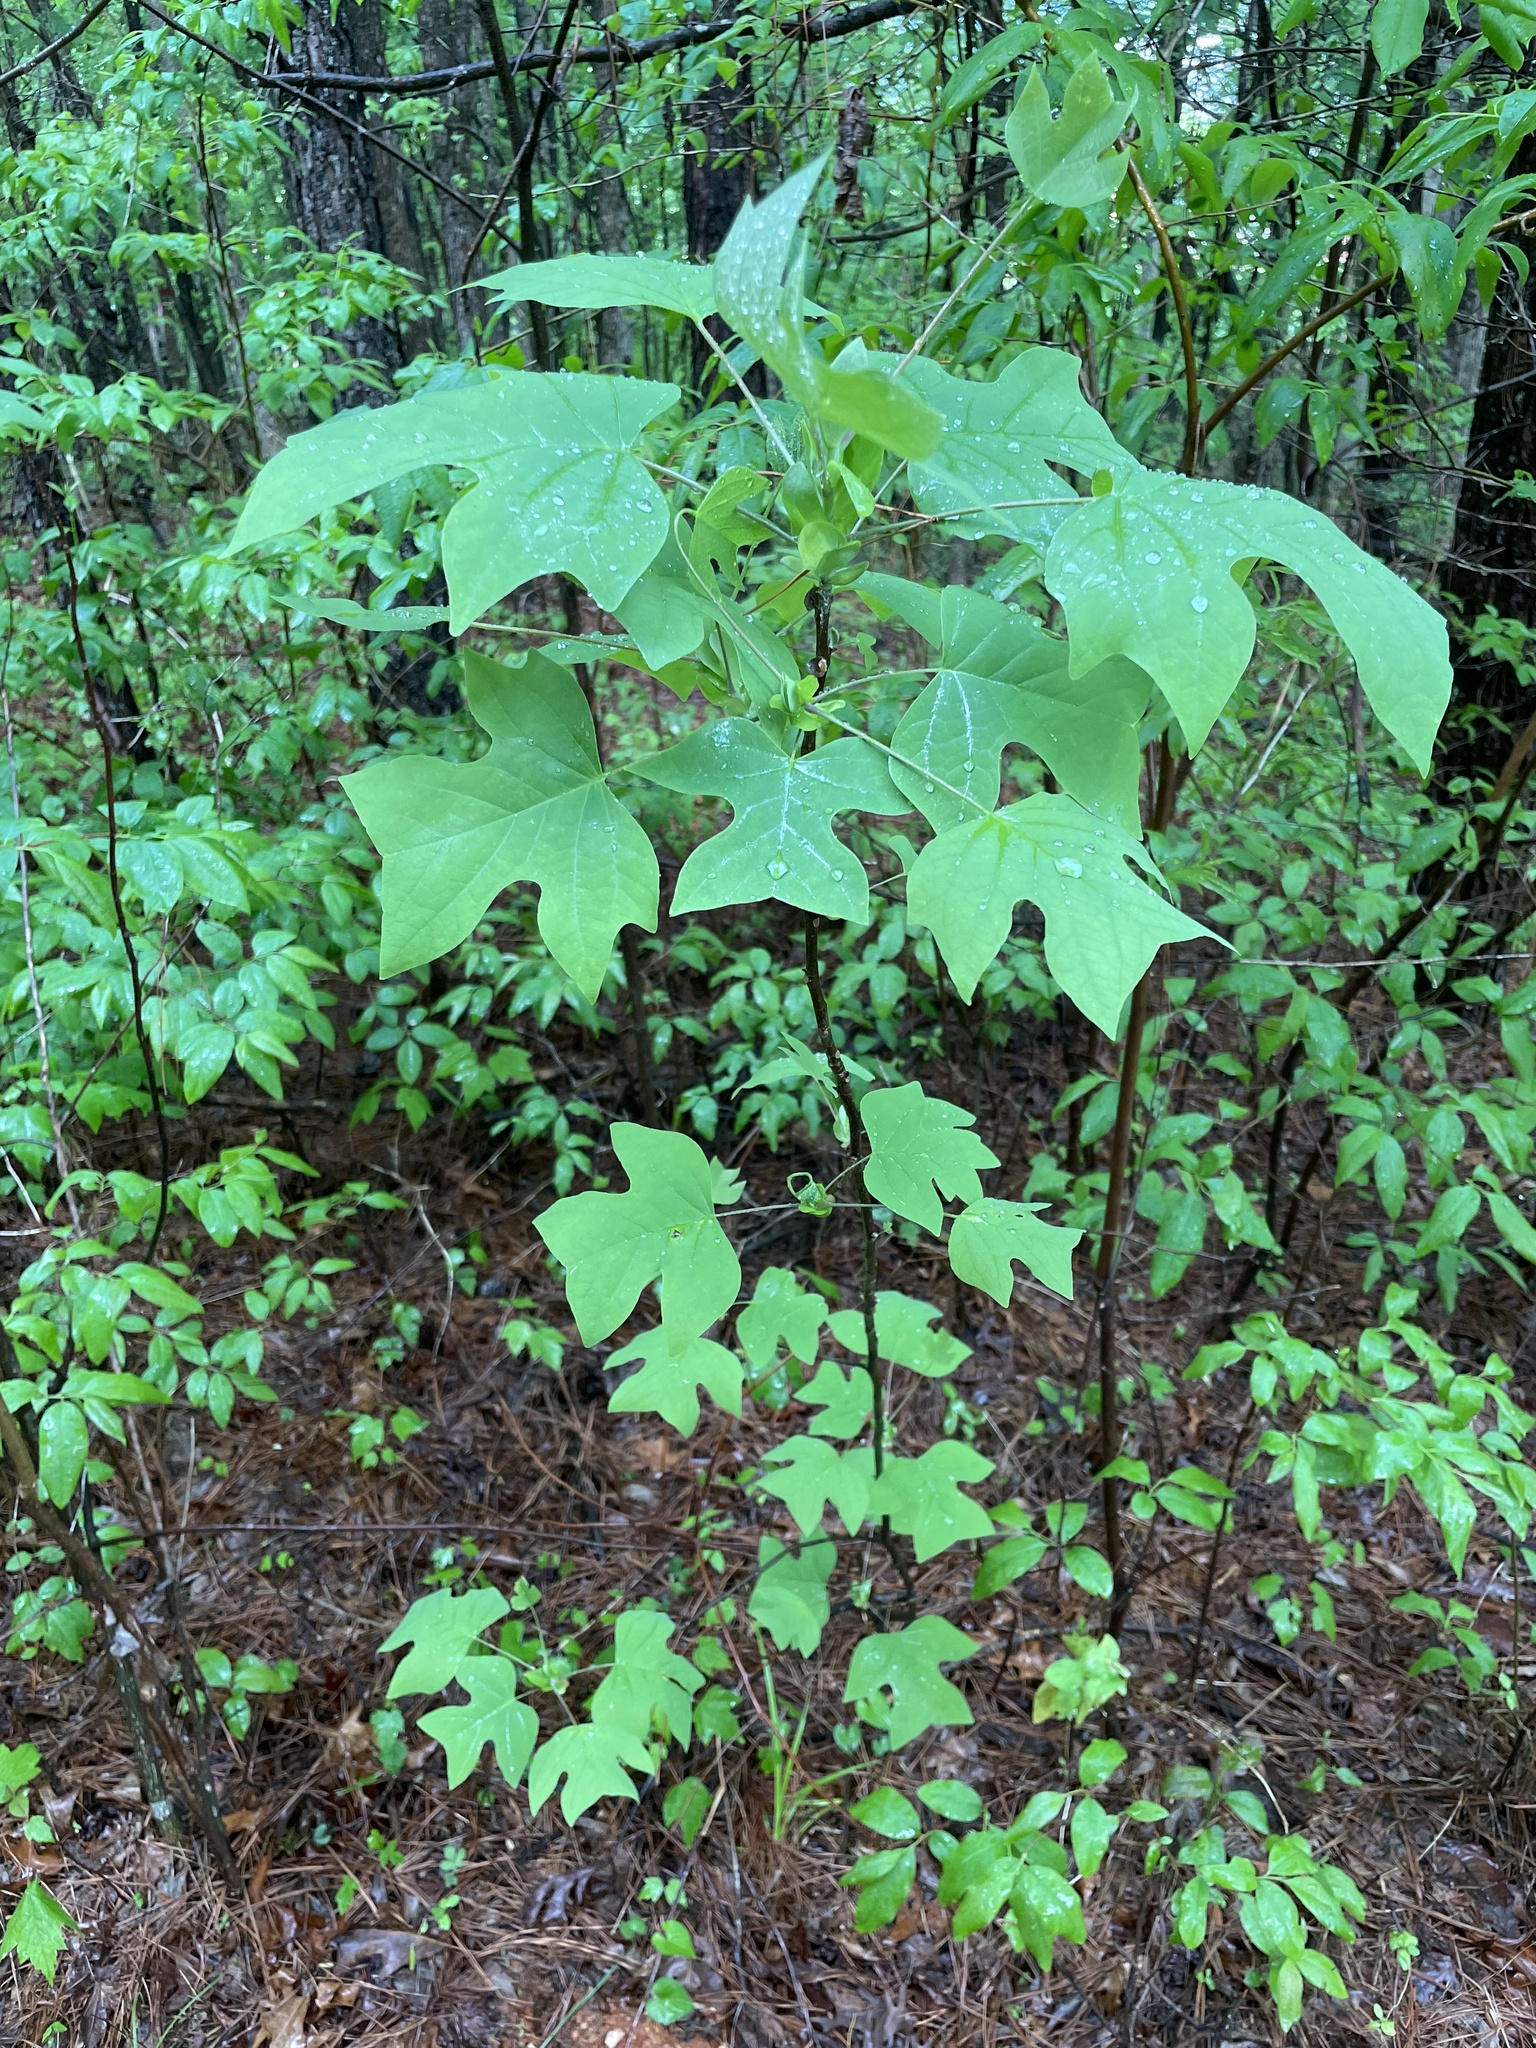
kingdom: Plantae
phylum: Tracheophyta
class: Magnoliopsida
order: Magnoliales
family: Magnoliaceae
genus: Liriodendron
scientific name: Liriodendron tulipifera
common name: Tulip tree
